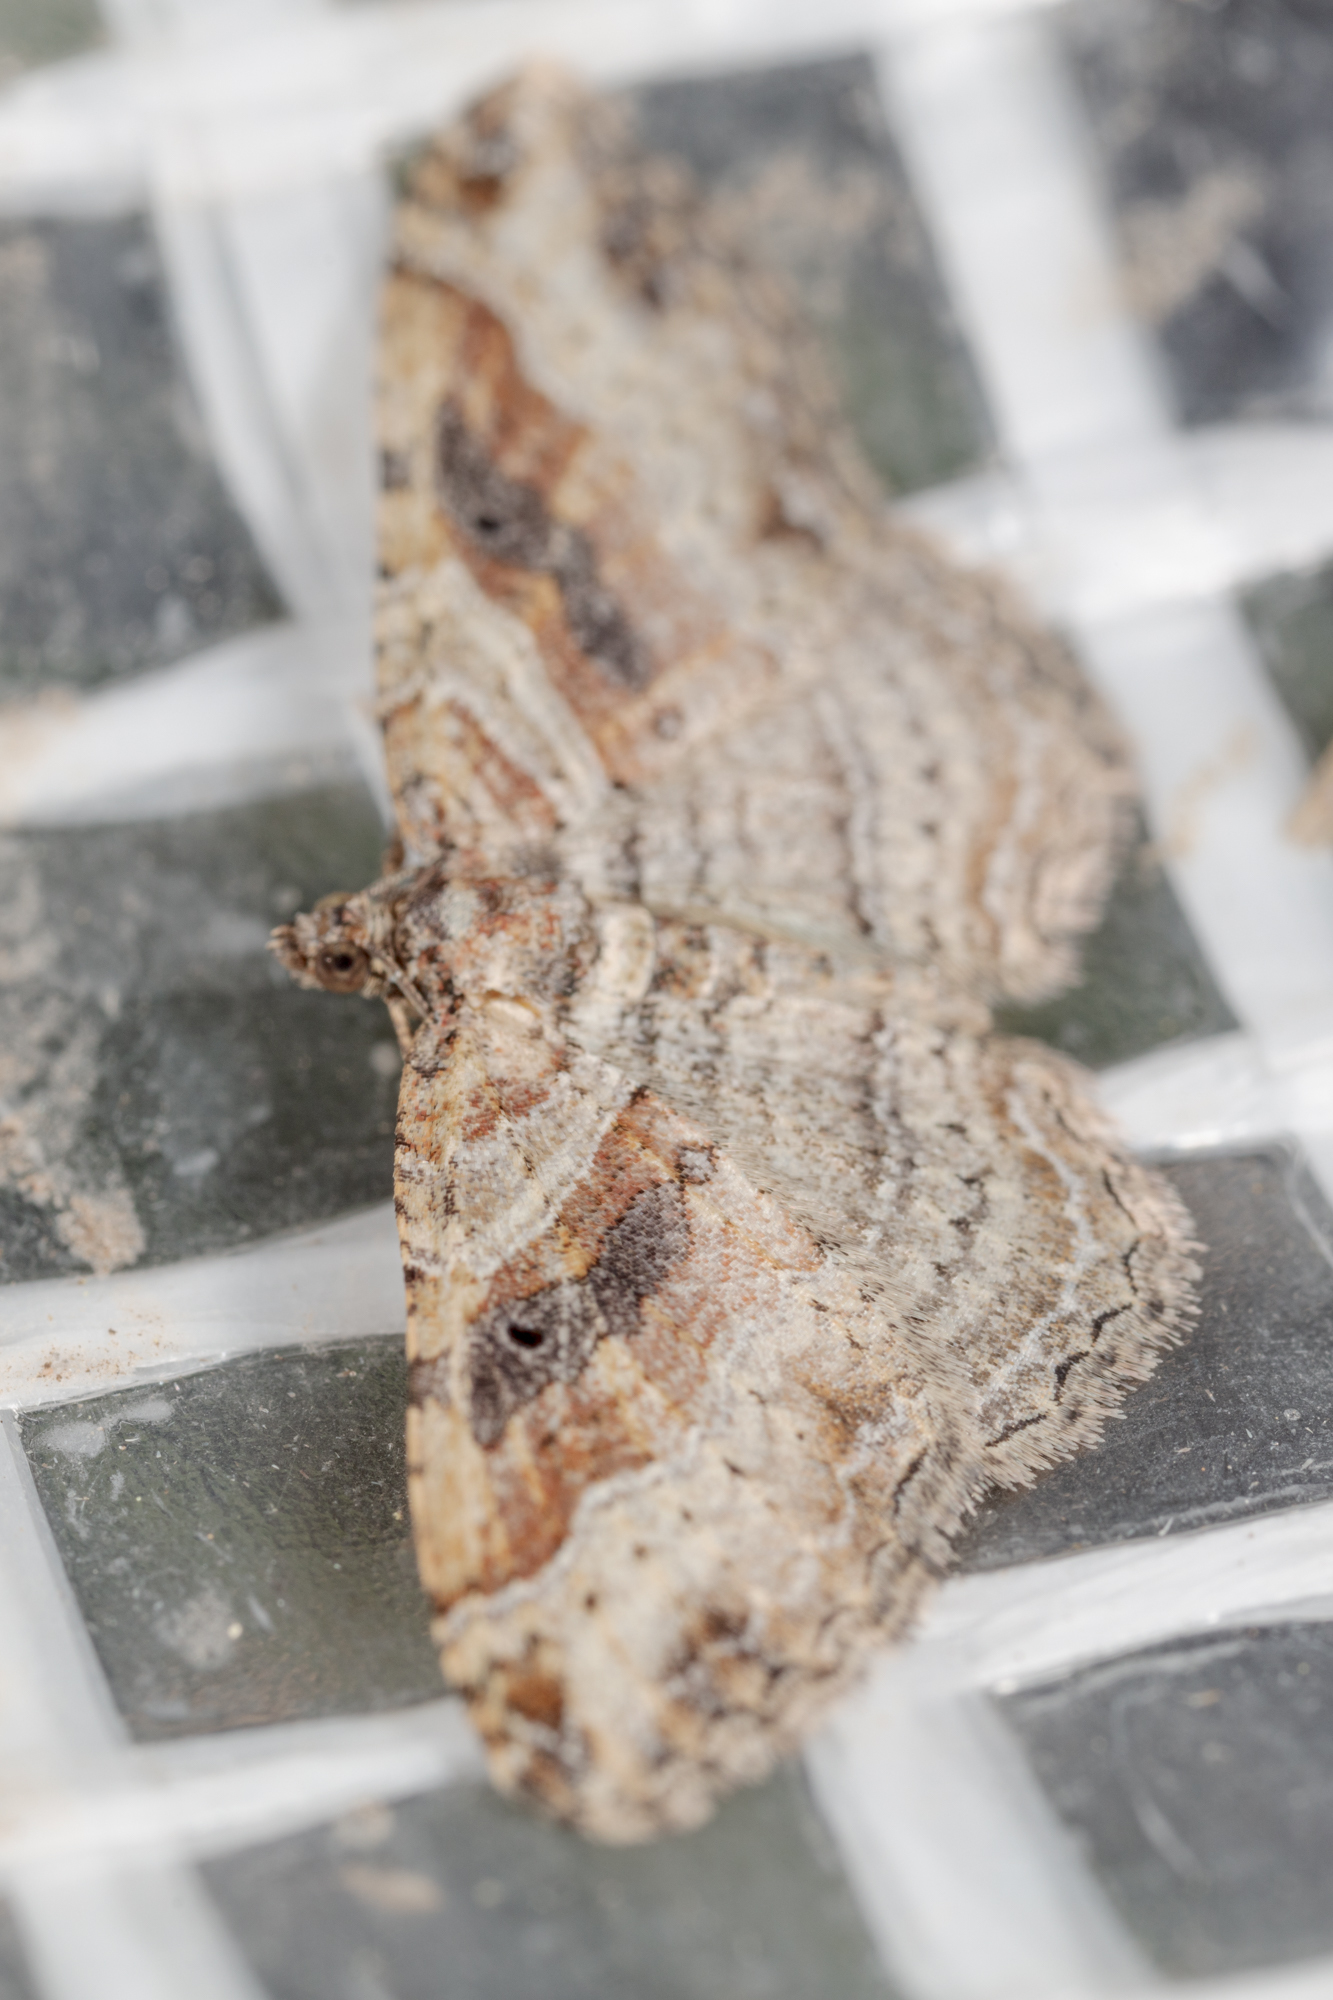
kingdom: Animalia
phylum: Arthropoda
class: Insecta
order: Lepidoptera
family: Geometridae
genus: Costaconvexa
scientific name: Costaconvexa centrostrigaria
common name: Bent-line carpet
